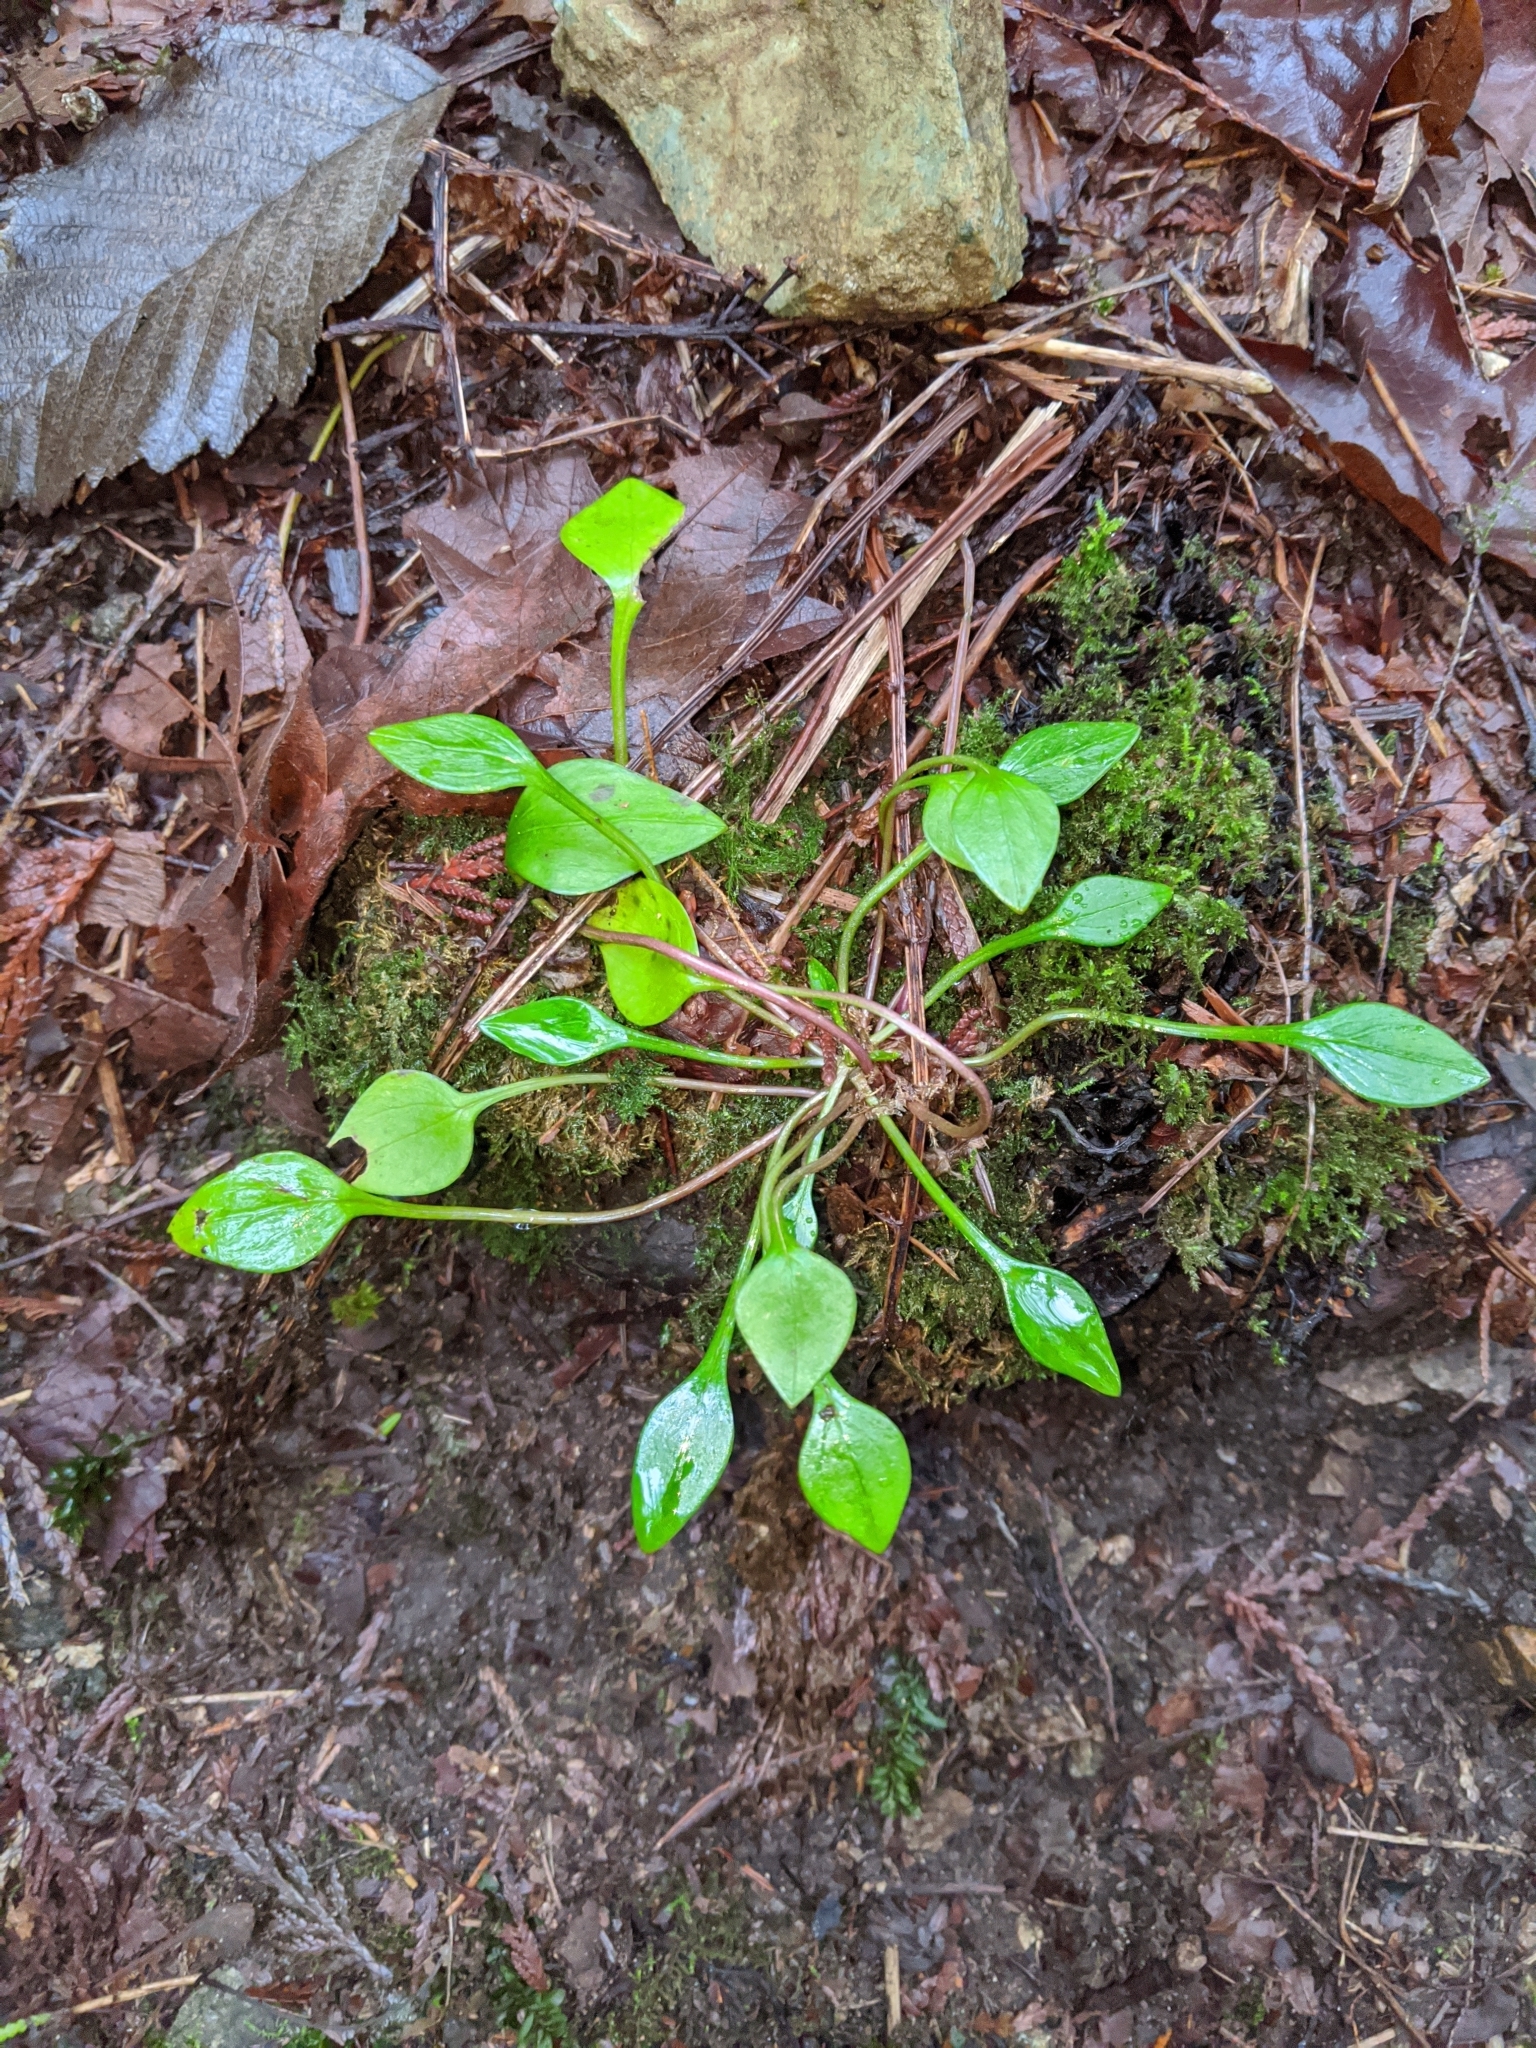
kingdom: Plantae
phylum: Tracheophyta
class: Magnoliopsida
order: Caryophyllales
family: Montiaceae
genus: Claytonia
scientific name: Claytonia sibirica
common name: Pink purslane
